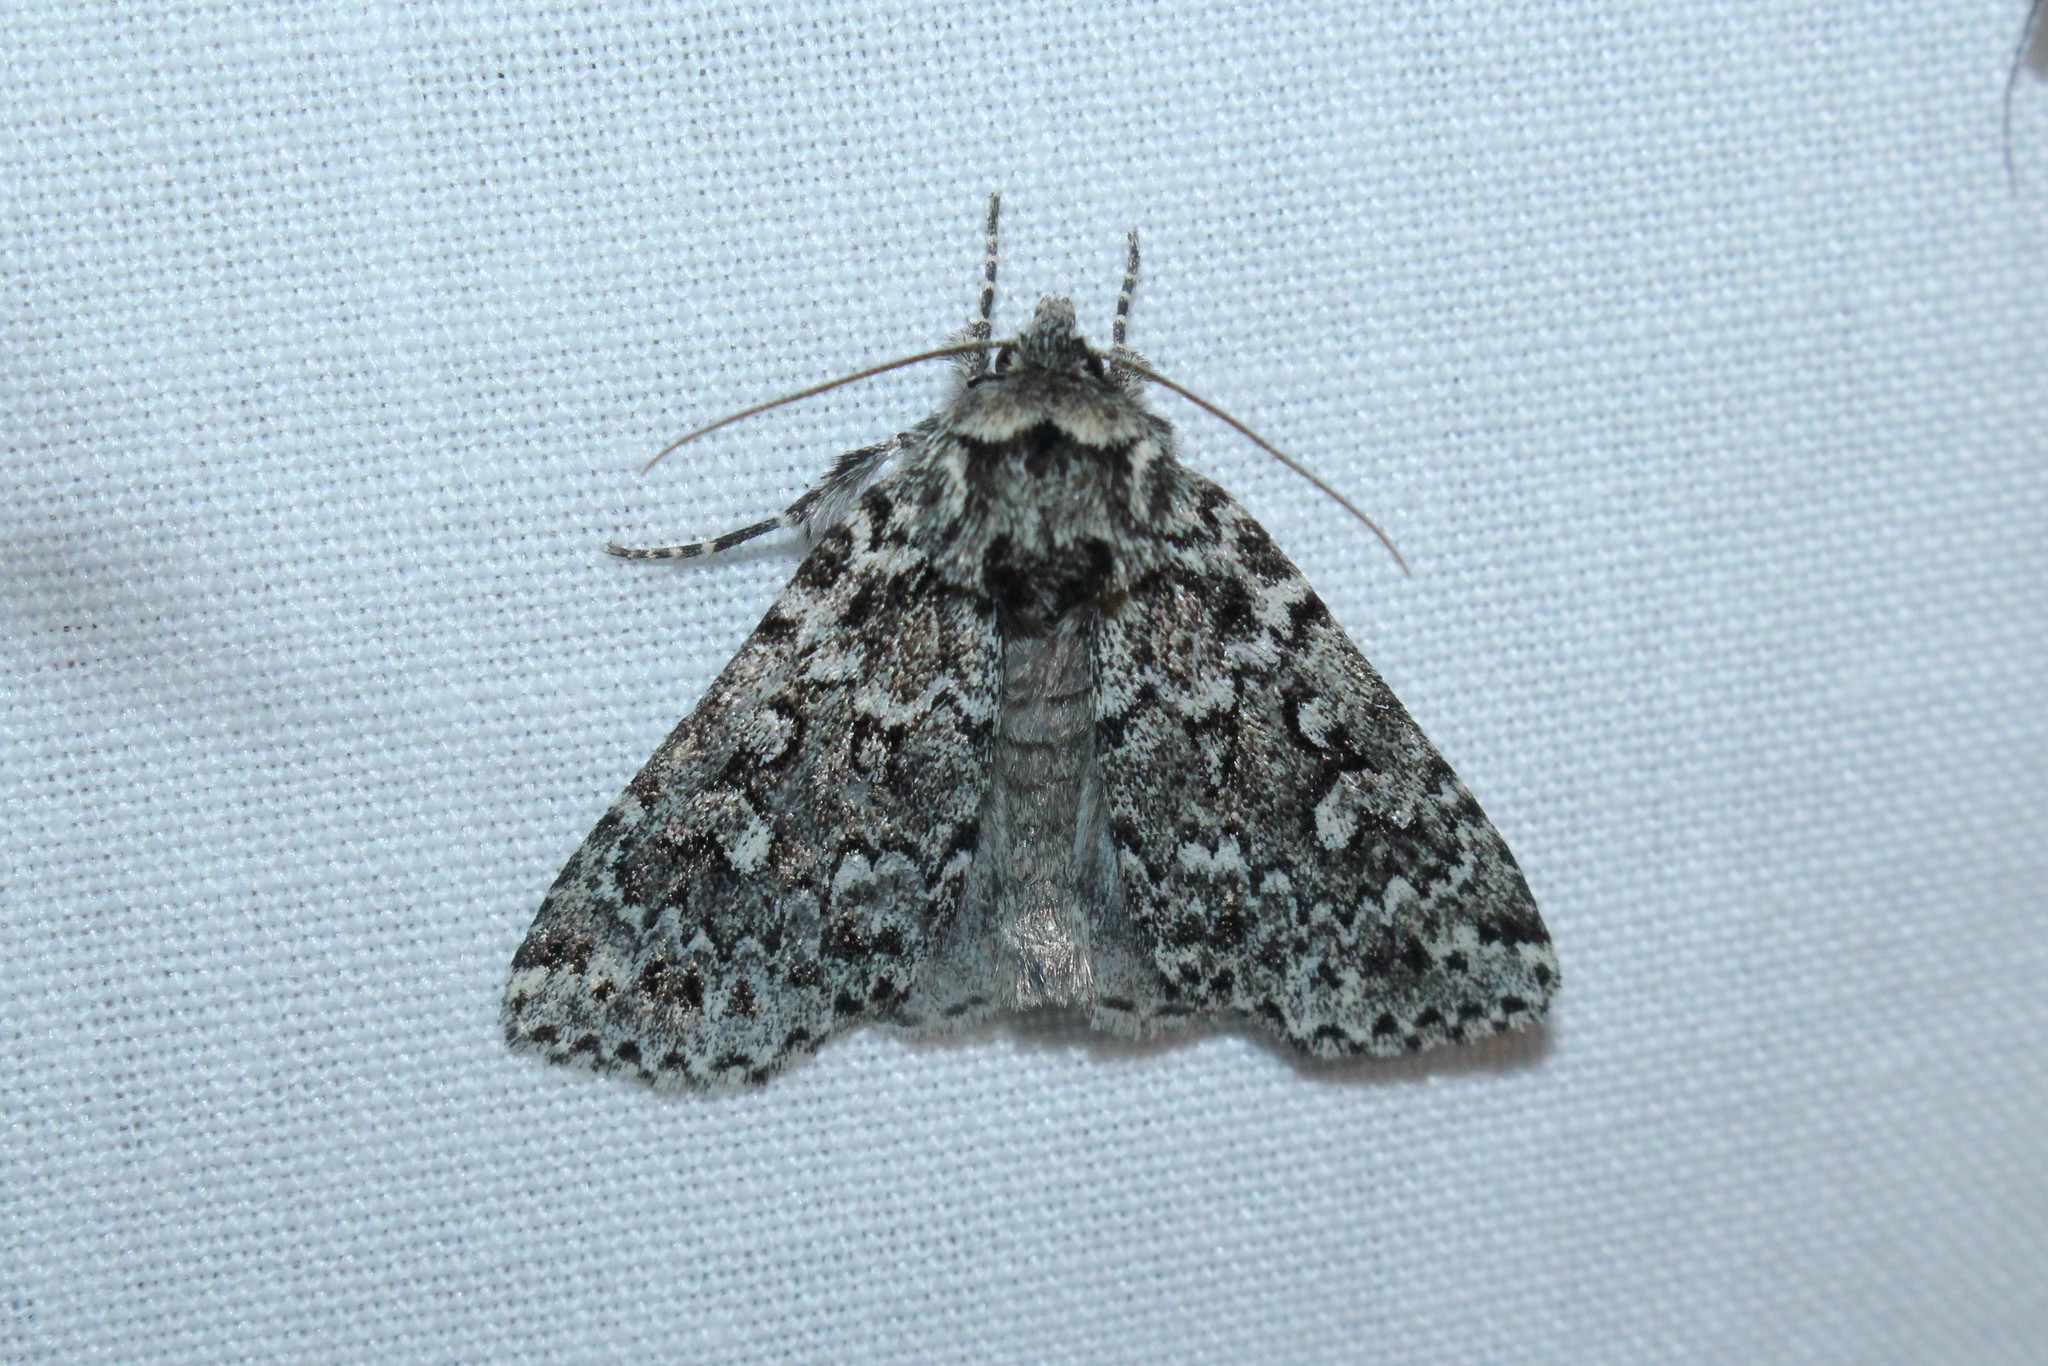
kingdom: Animalia
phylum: Arthropoda
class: Insecta
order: Lepidoptera
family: Noctuidae
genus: Xestia
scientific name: Xestia perquiritata
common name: Boomerang dart
